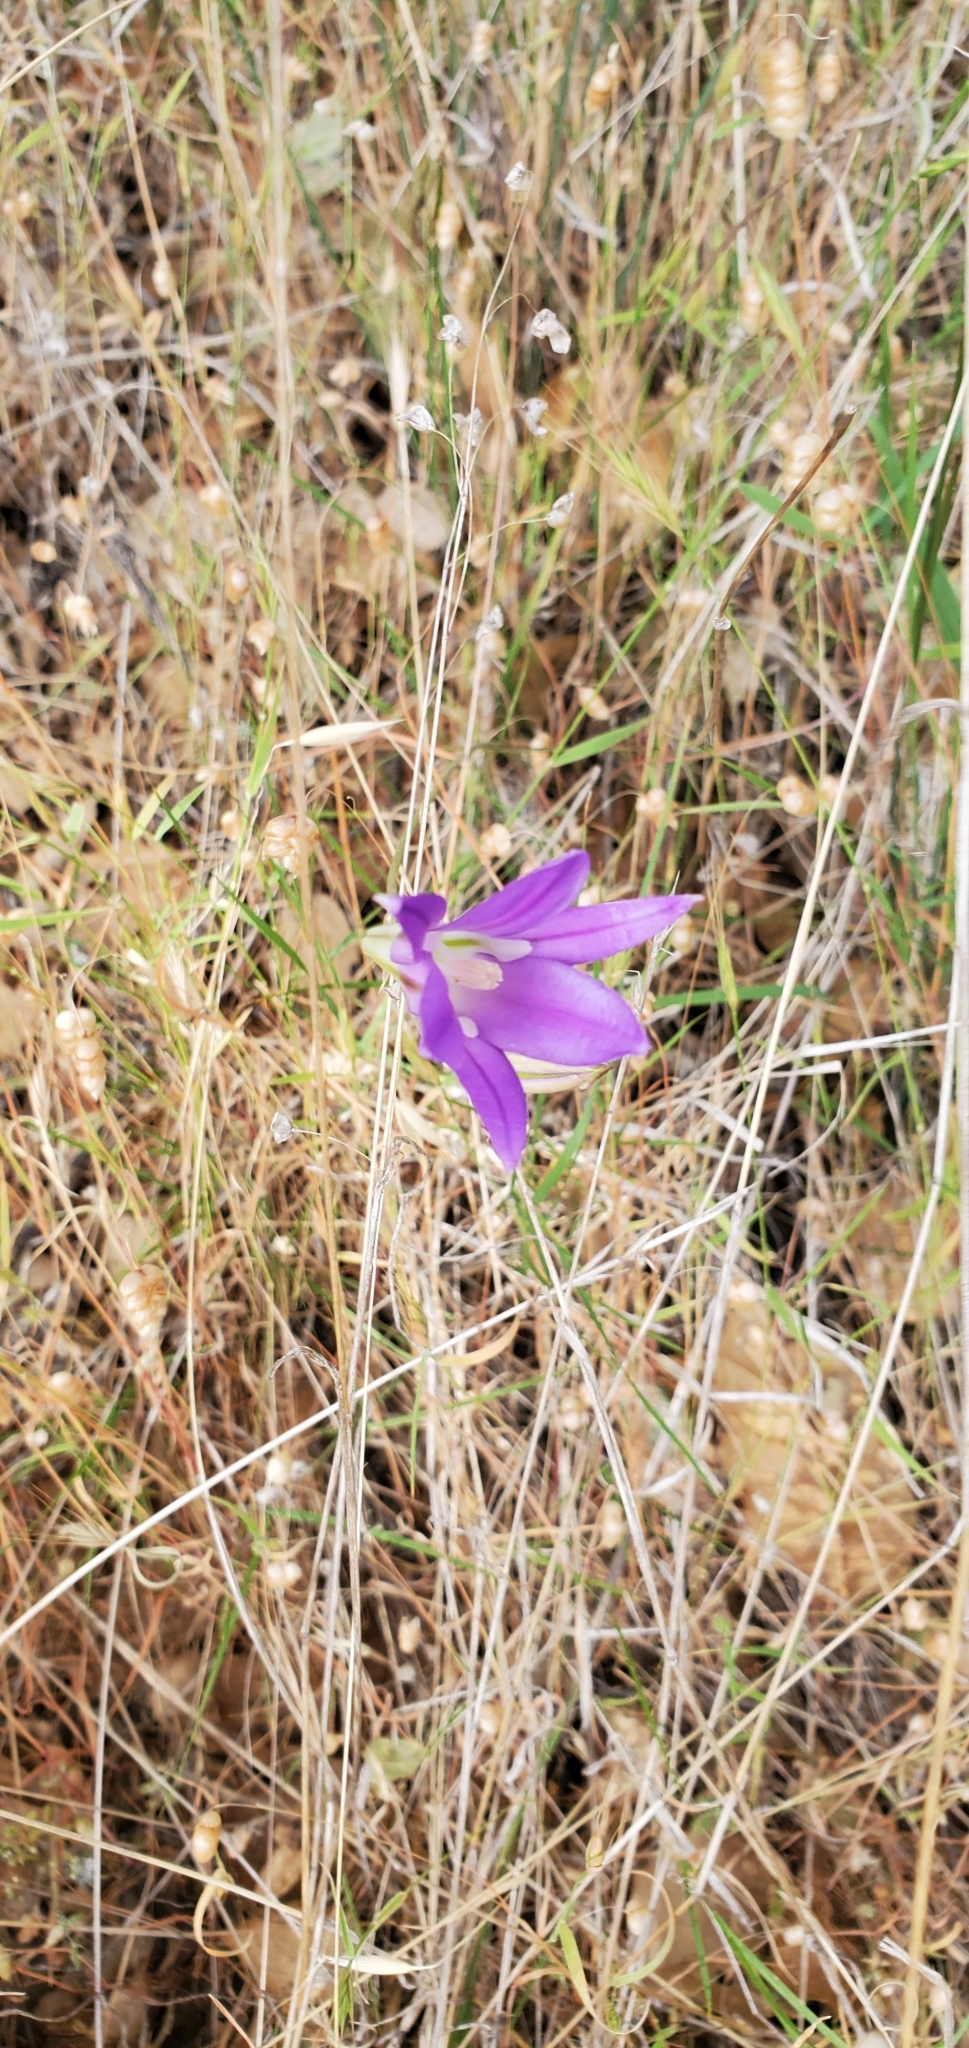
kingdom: Plantae
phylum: Tracheophyta
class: Liliopsida
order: Asparagales
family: Asparagaceae
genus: Brodiaea
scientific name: Brodiaea elegans
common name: Elegant cluster-lily
